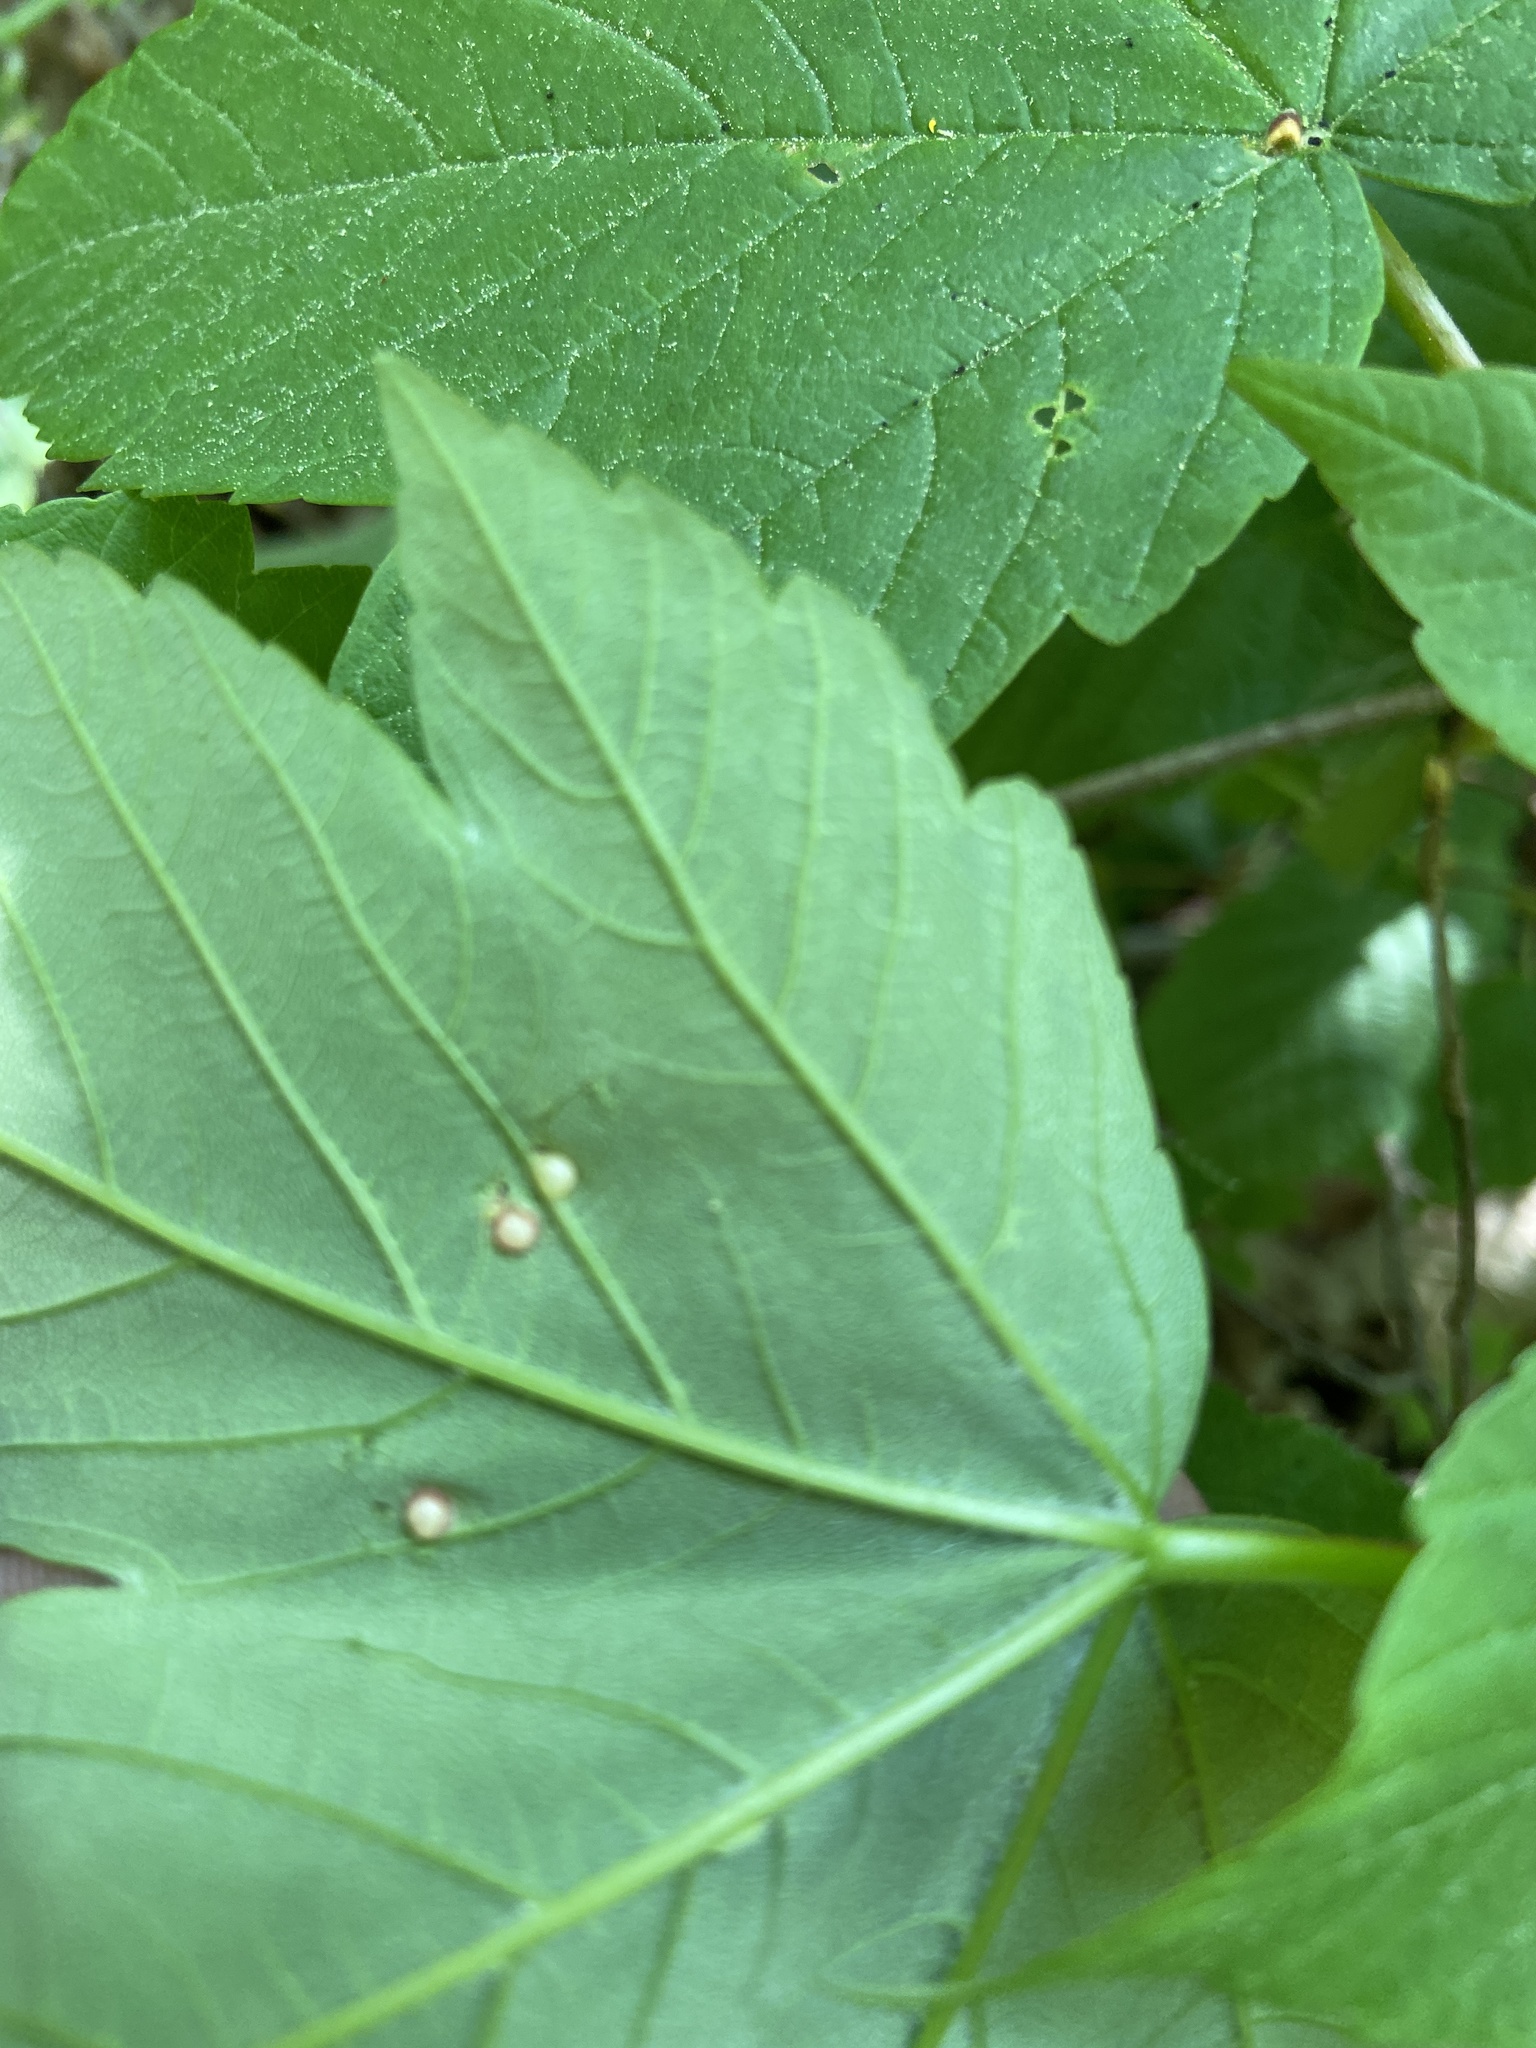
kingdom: Animalia
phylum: Arthropoda
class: Insecta
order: Hymenoptera
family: Cynipidae
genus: Pediaspis
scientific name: Pediaspis aceris
